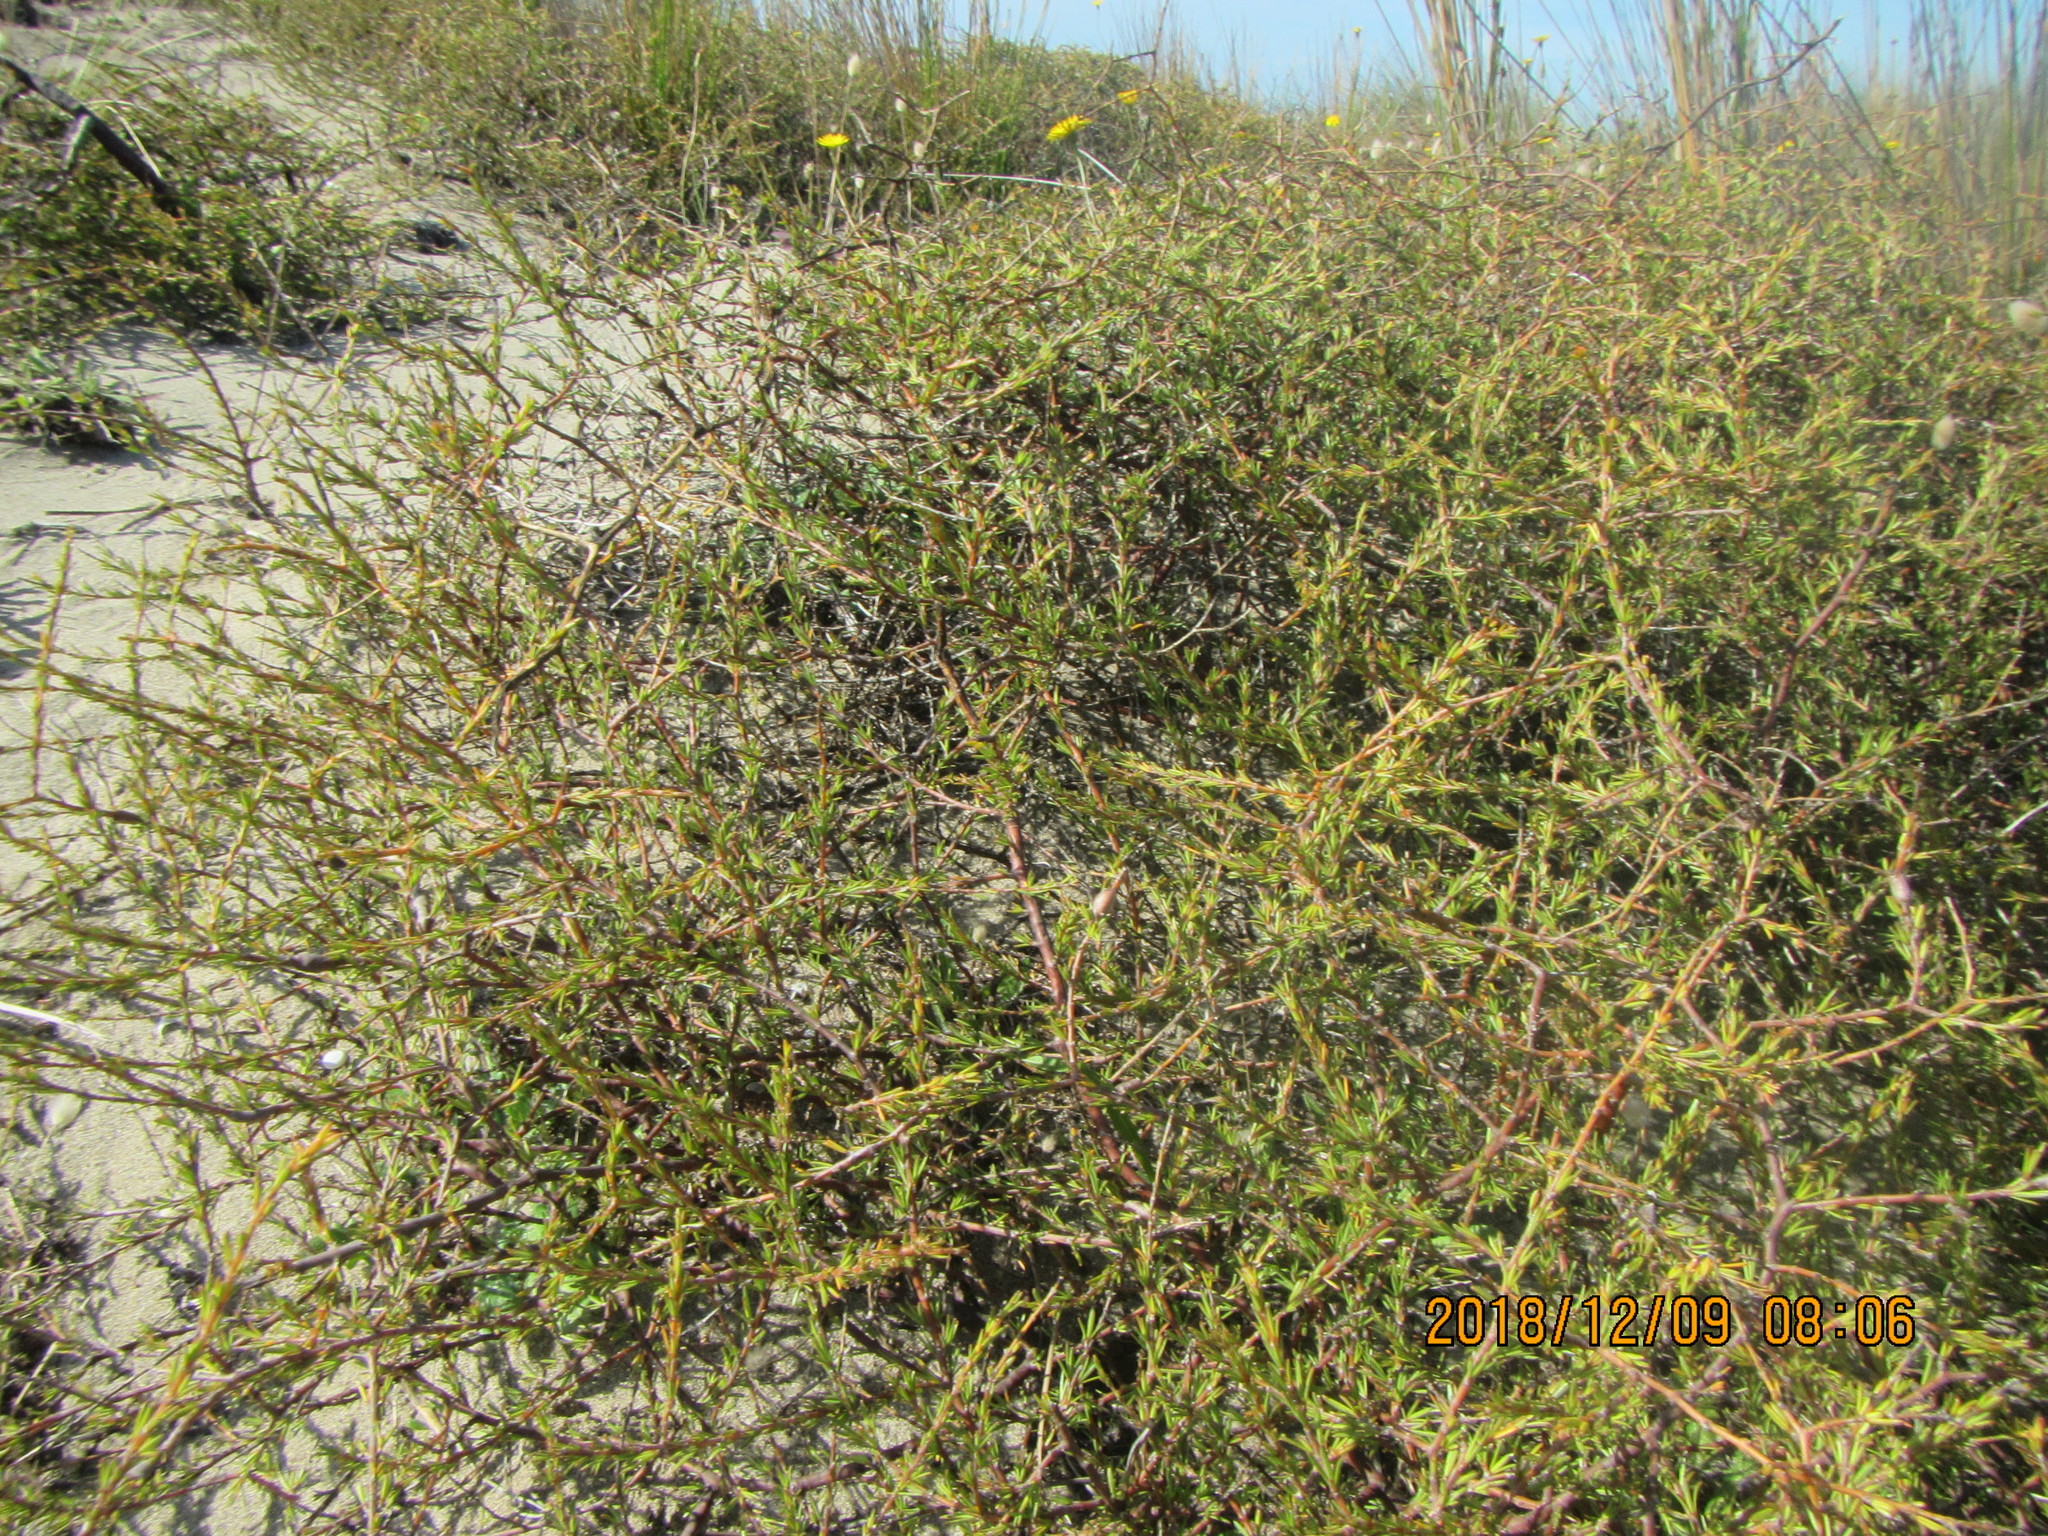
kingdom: Plantae
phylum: Tracheophyta
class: Magnoliopsida
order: Gentianales
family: Rubiaceae
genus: Coprosma
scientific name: Coprosma acerosa
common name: Sand coprosma
